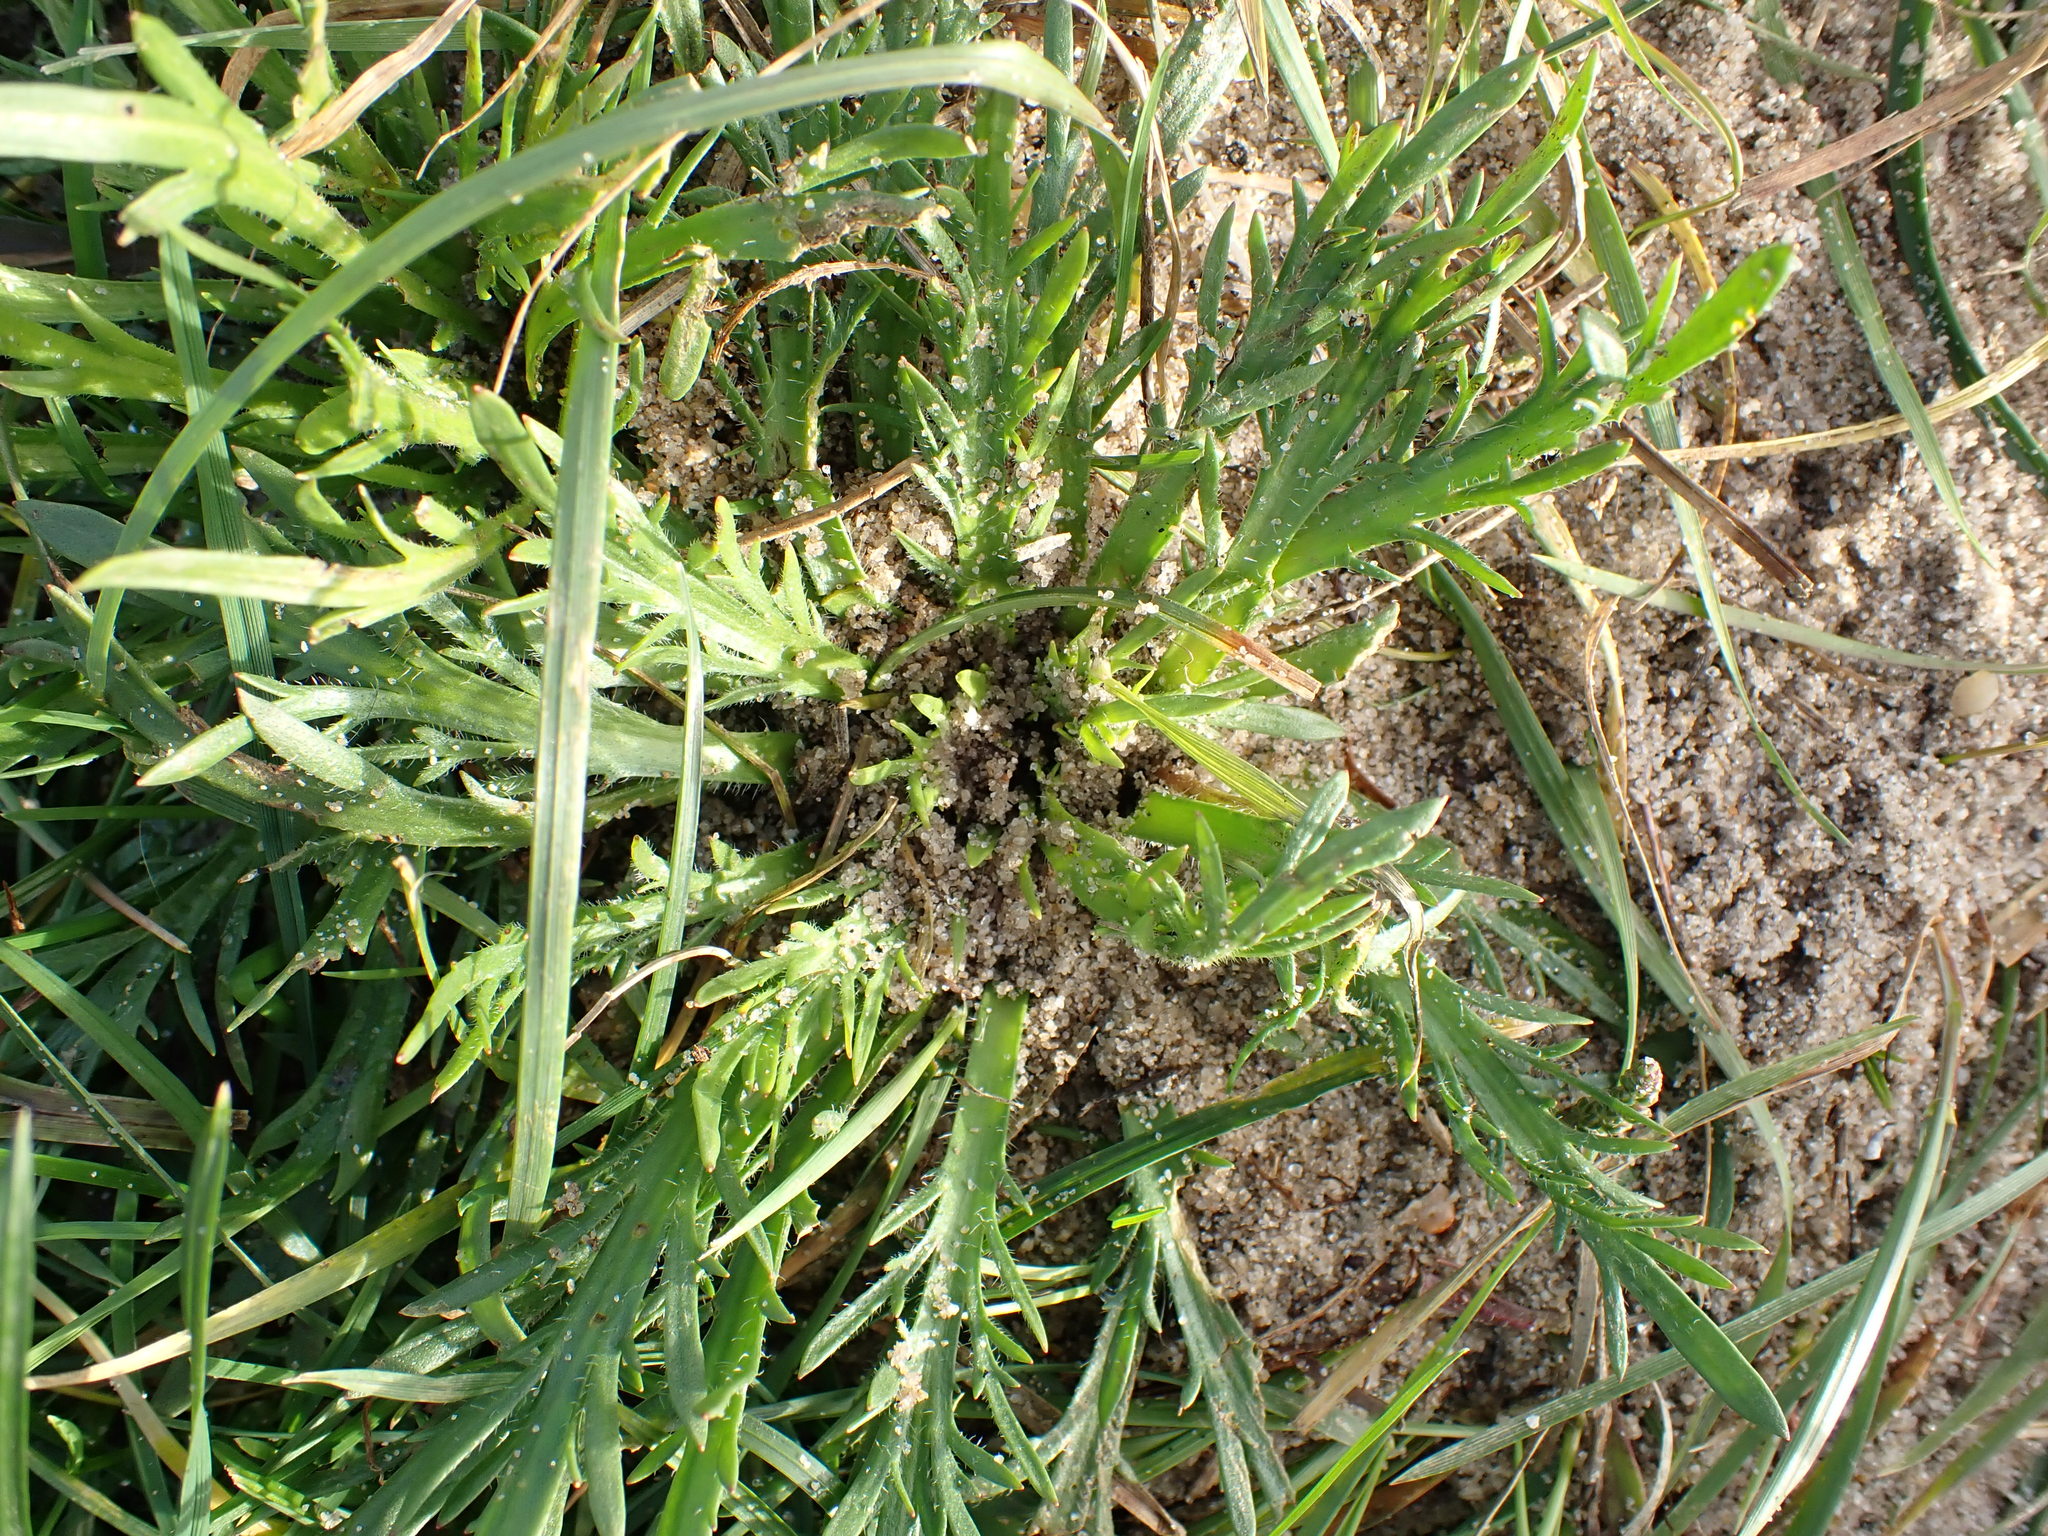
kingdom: Plantae
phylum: Tracheophyta
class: Magnoliopsida
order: Lamiales
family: Plantaginaceae
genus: Plantago
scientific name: Plantago coronopus
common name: Buck's-horn plantain
